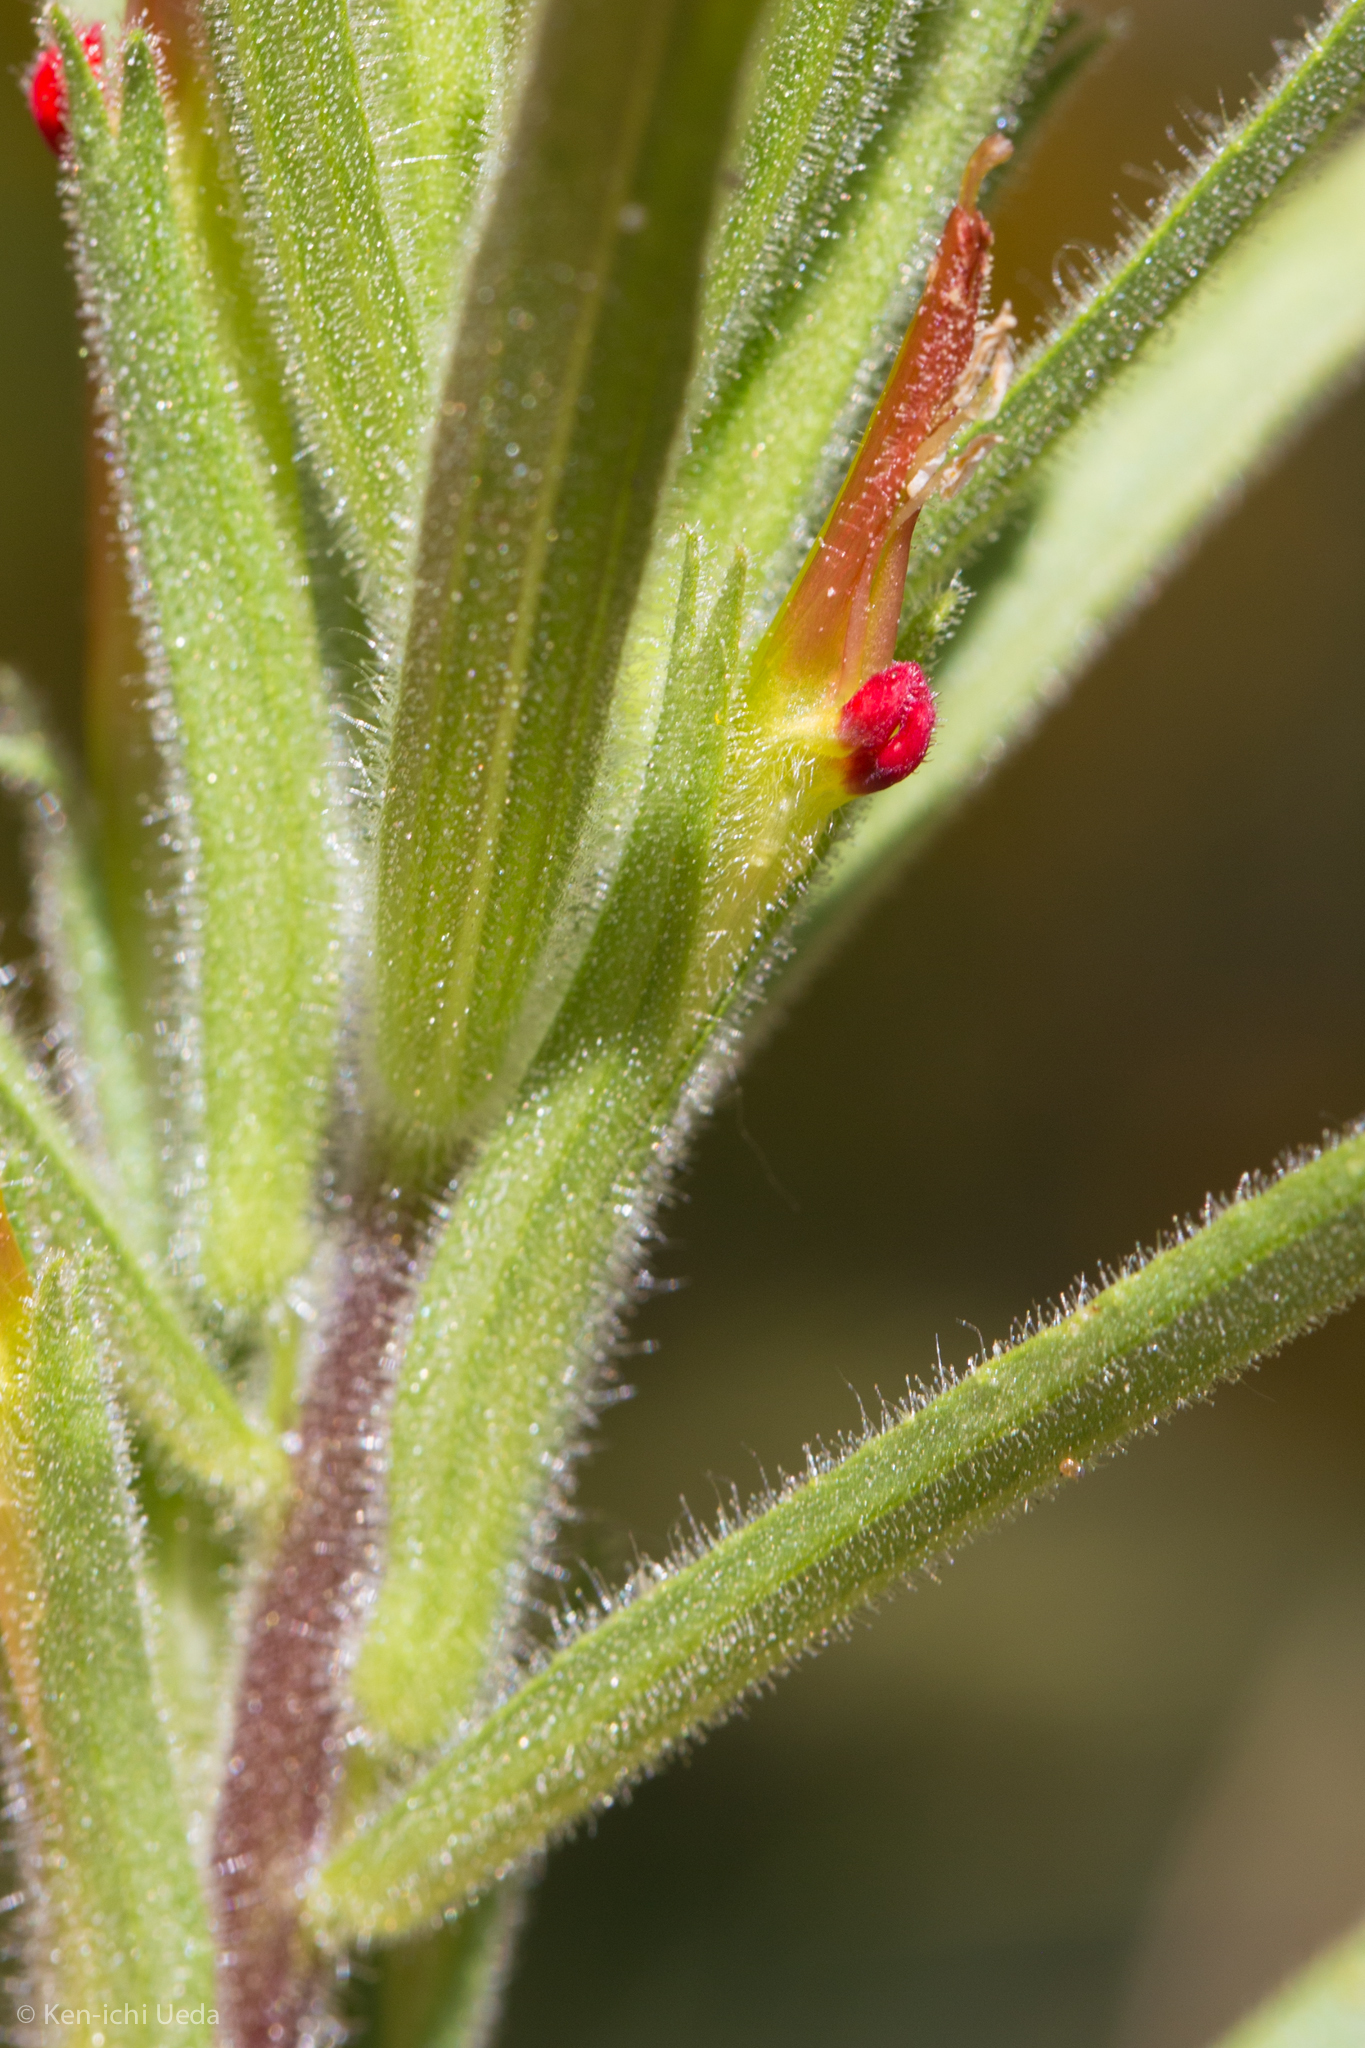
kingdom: Plantae
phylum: Tracheophyta
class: Magnoliopsida
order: Lamiales
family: Orobanchaceae
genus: Castilleja
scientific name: Castilleja minor
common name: Seep paintbrush
